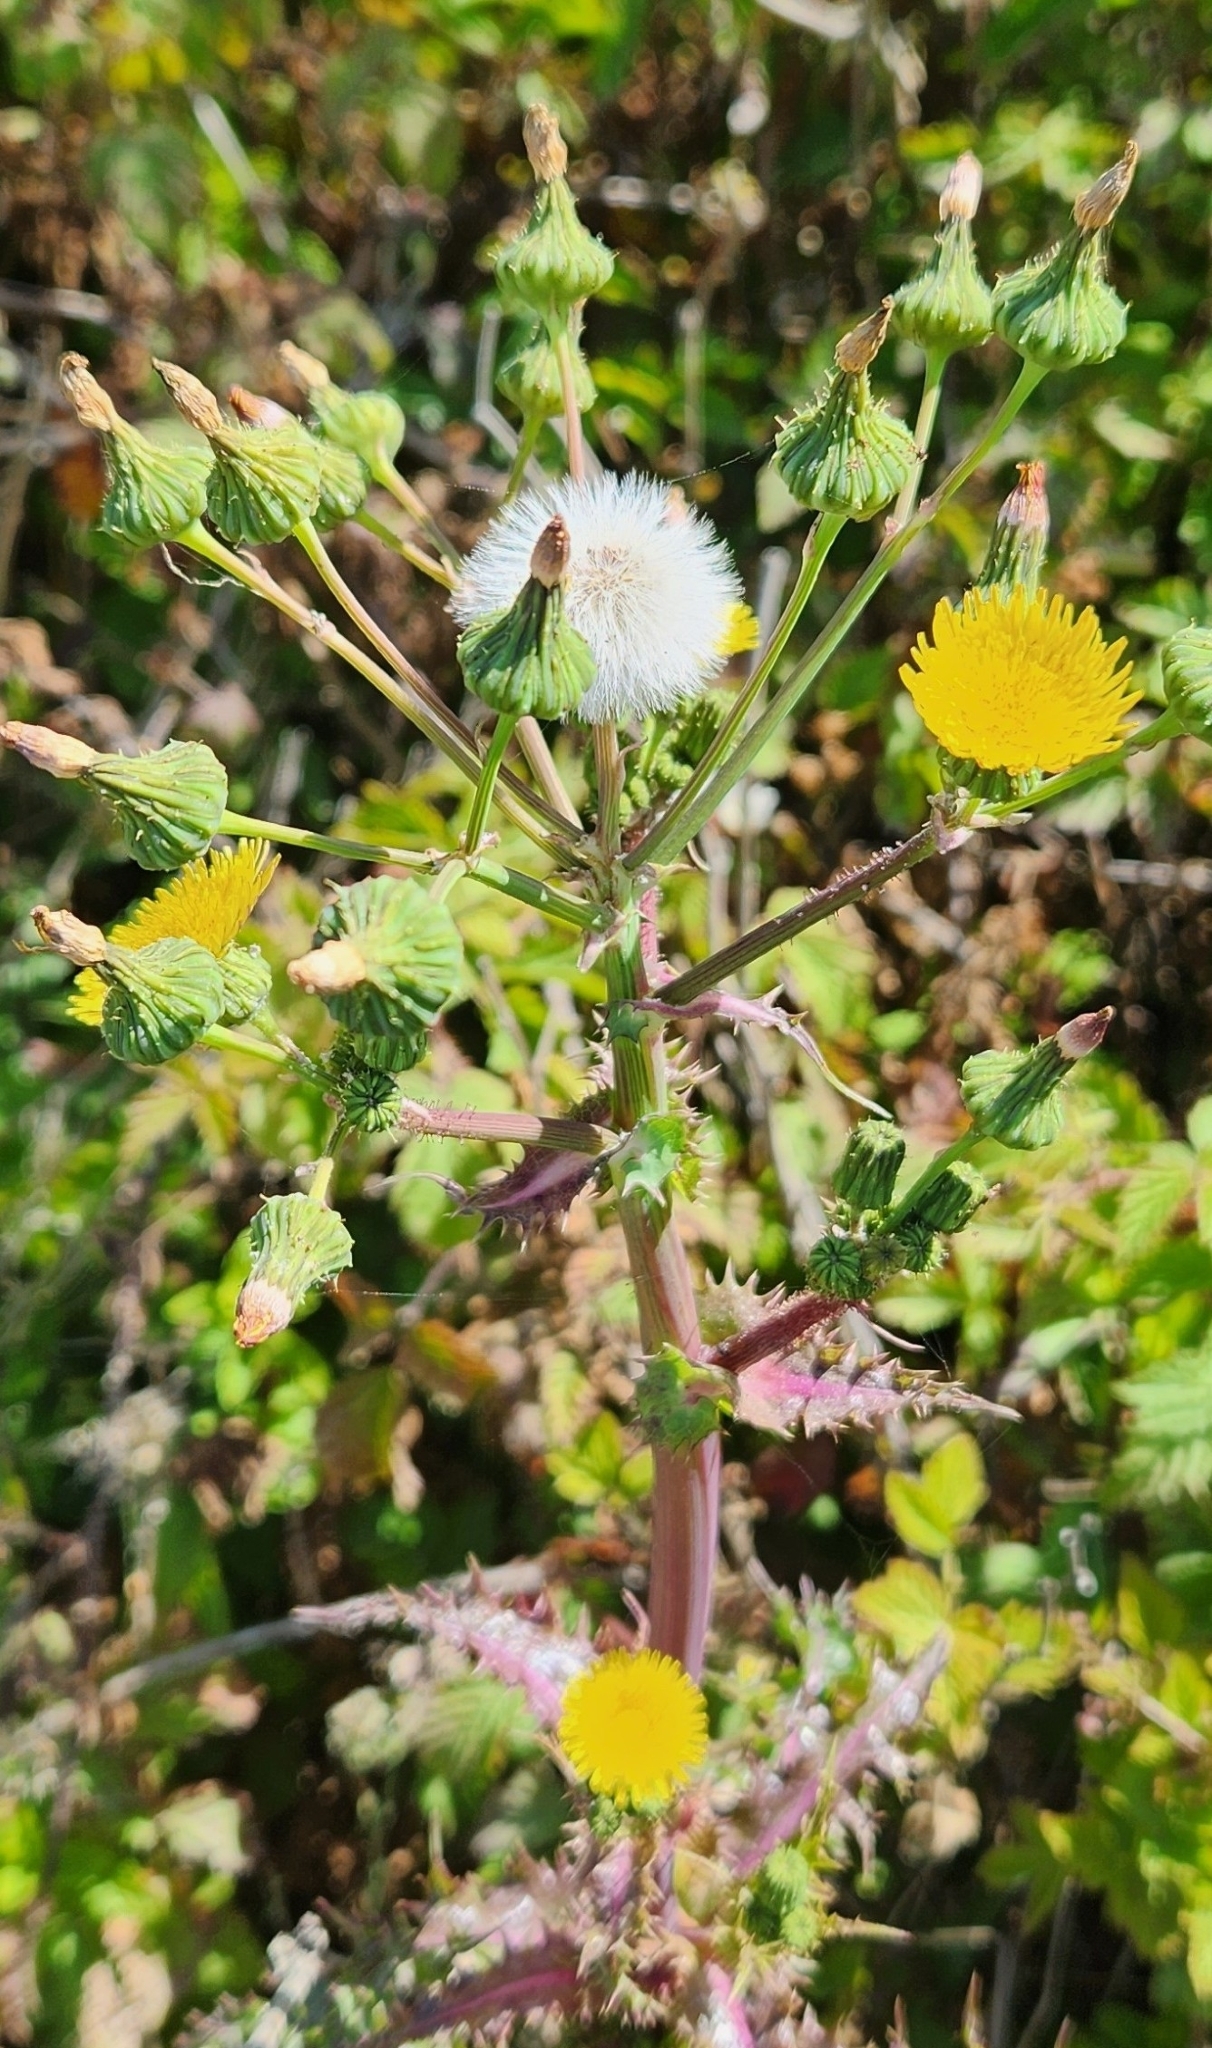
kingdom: Plantae
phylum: Tracheophyta
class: Magnoliopsida
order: Asterales
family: Asteraceae
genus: Sonchus
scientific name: Sonchus asper
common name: Prickly sow-thistle
